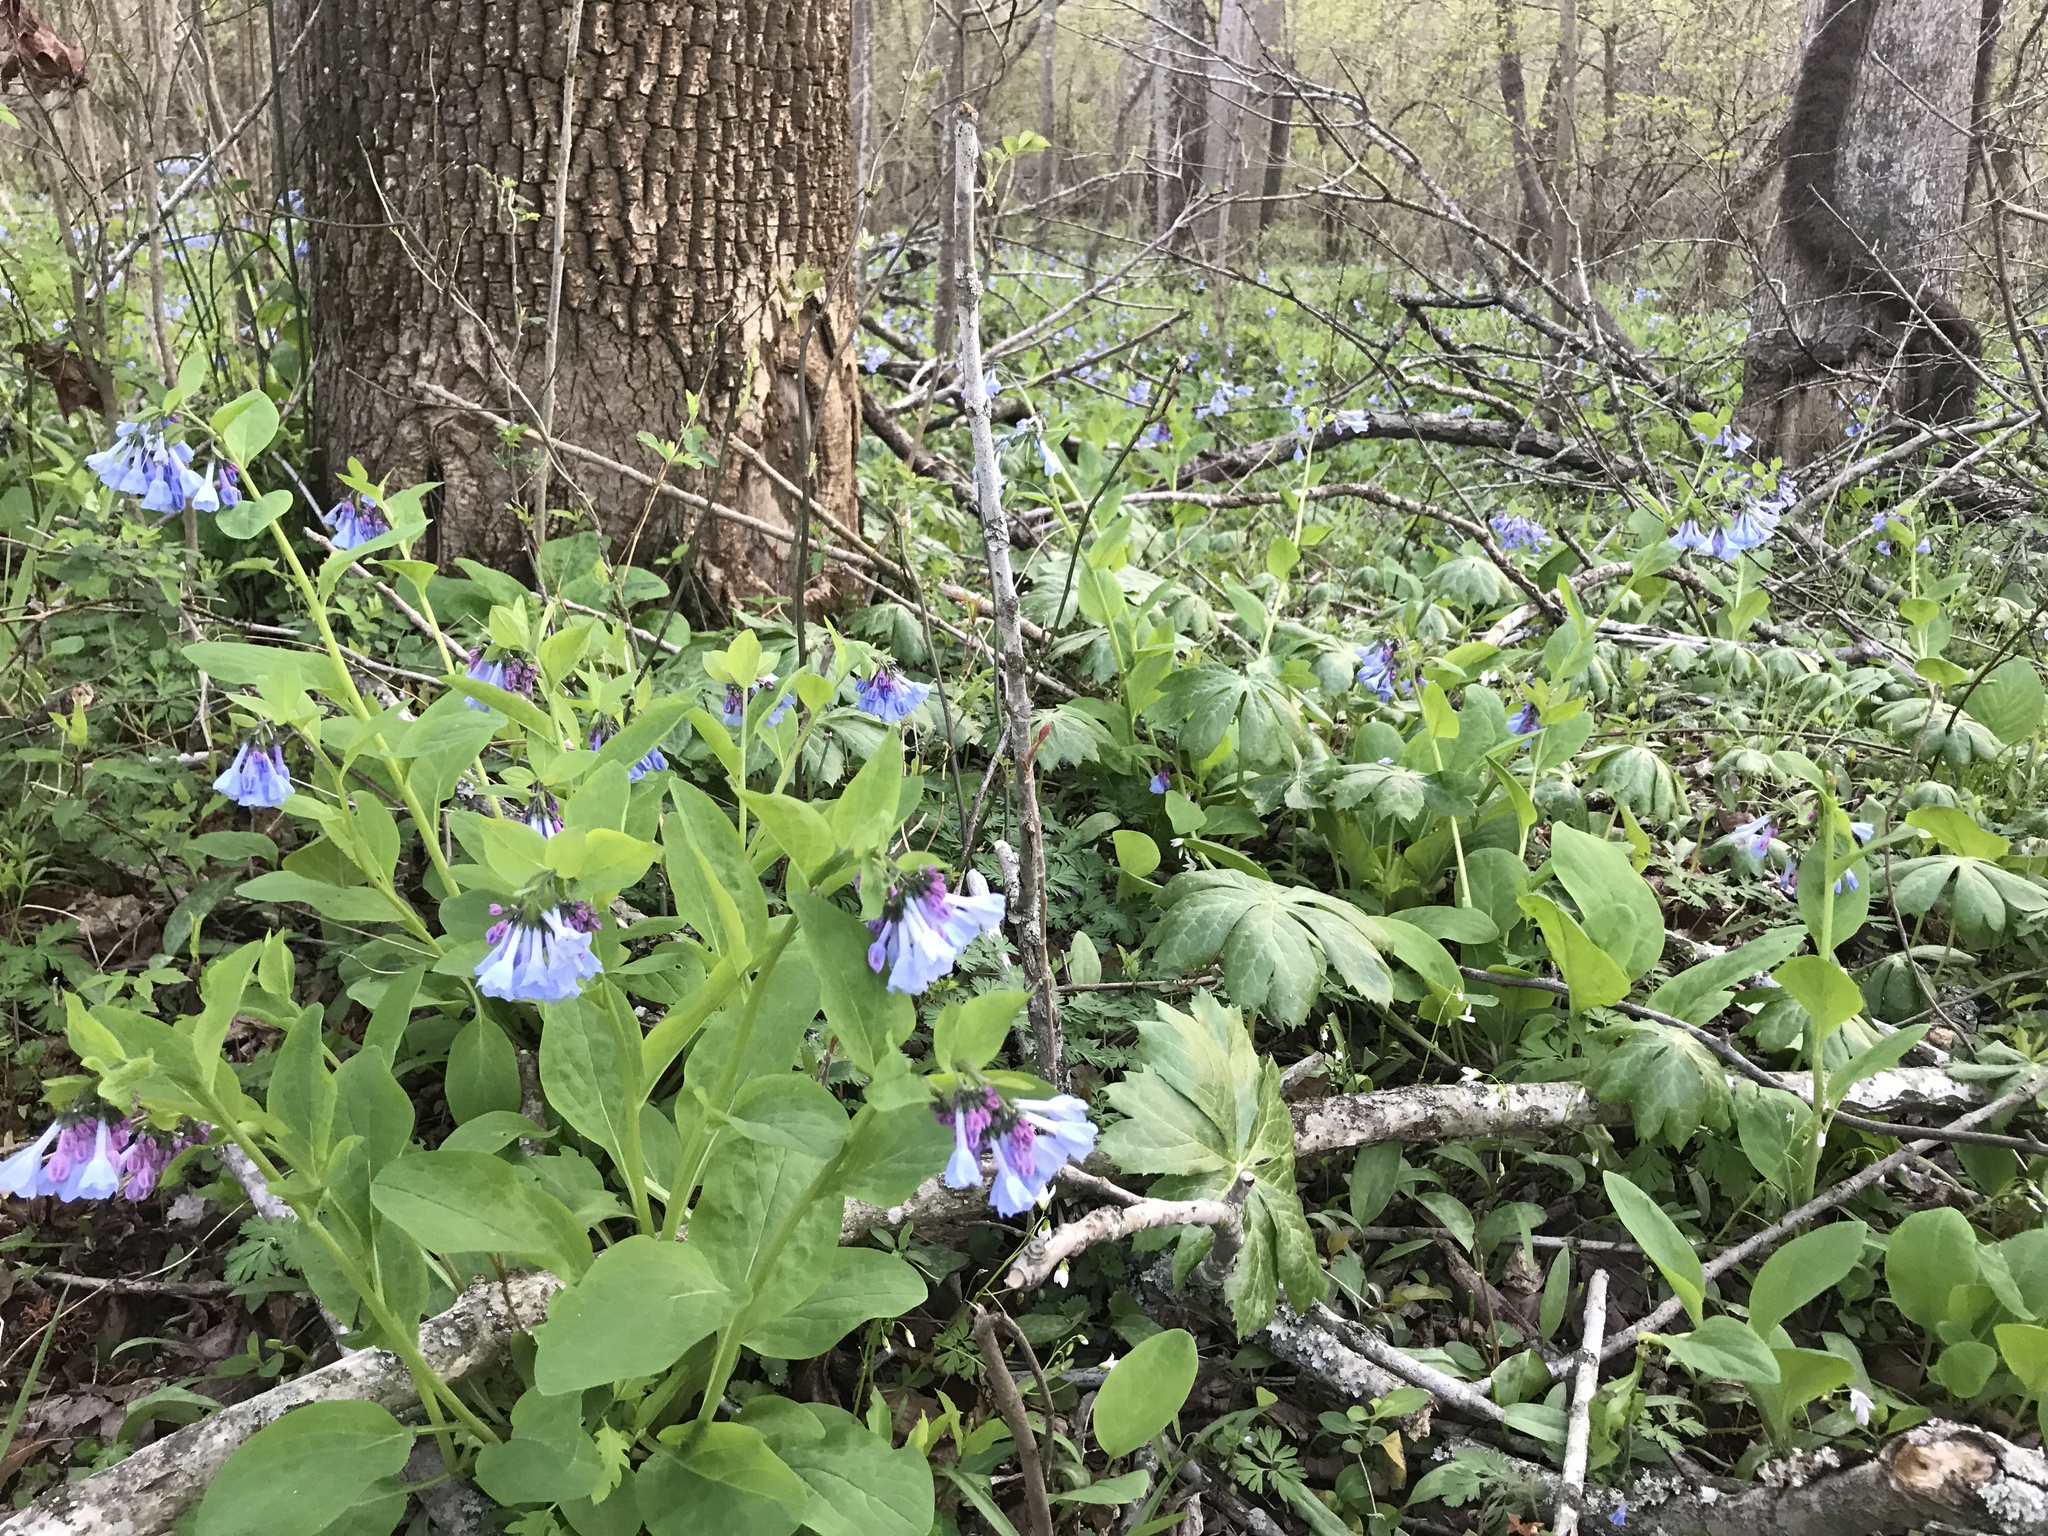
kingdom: Plantae
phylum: Tracheophyta
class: Magnoliopsida
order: Boraginales
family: Boraginaceae
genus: Mertensia
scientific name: Mertensia virginica
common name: Virginia bluebells
